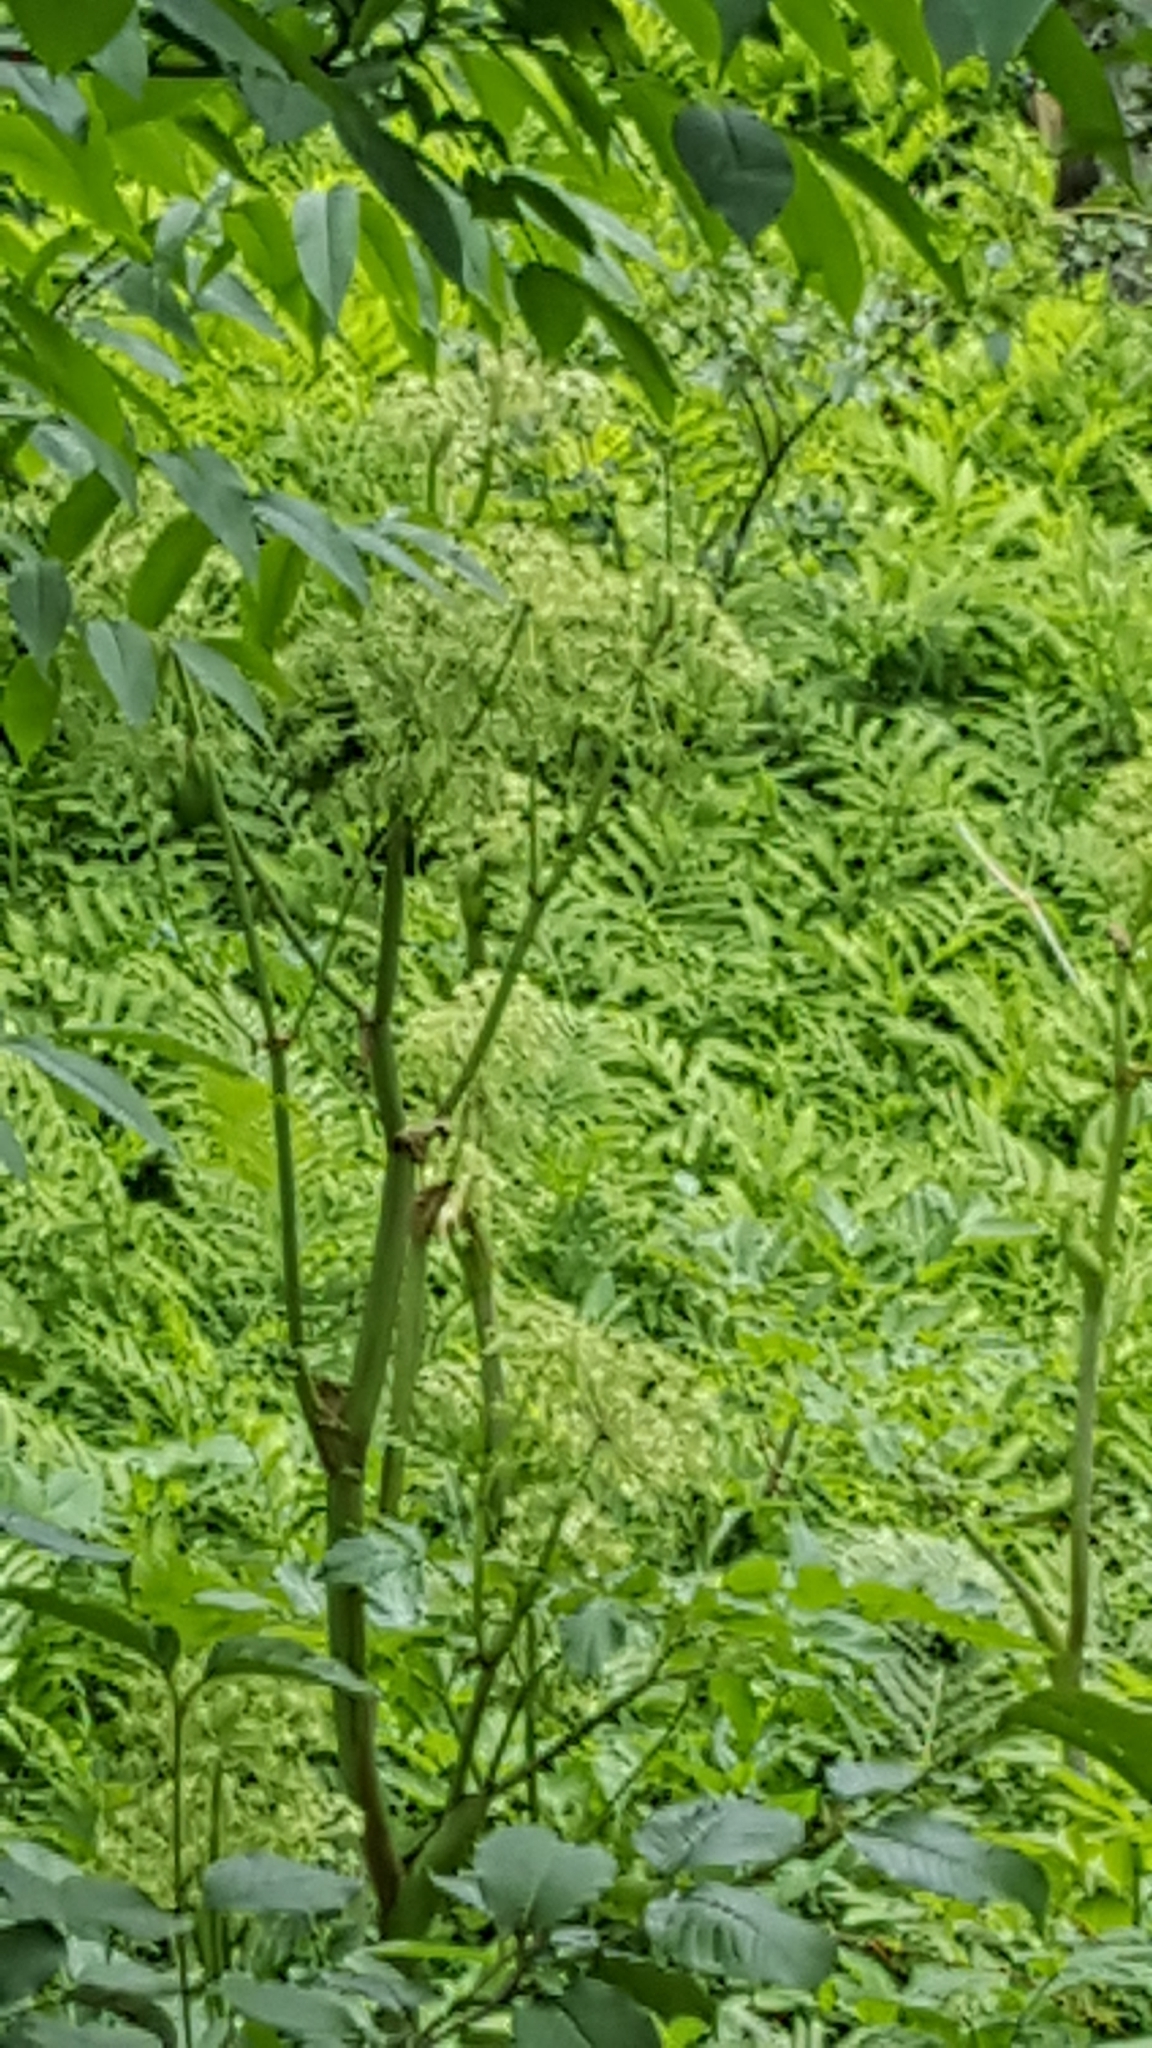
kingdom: Plantae
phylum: Tracheophyta
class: Magnoliopsida
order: Apiales
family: Apiaceae
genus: Angelica
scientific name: Angelica atropurpurea
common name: Great angelica
